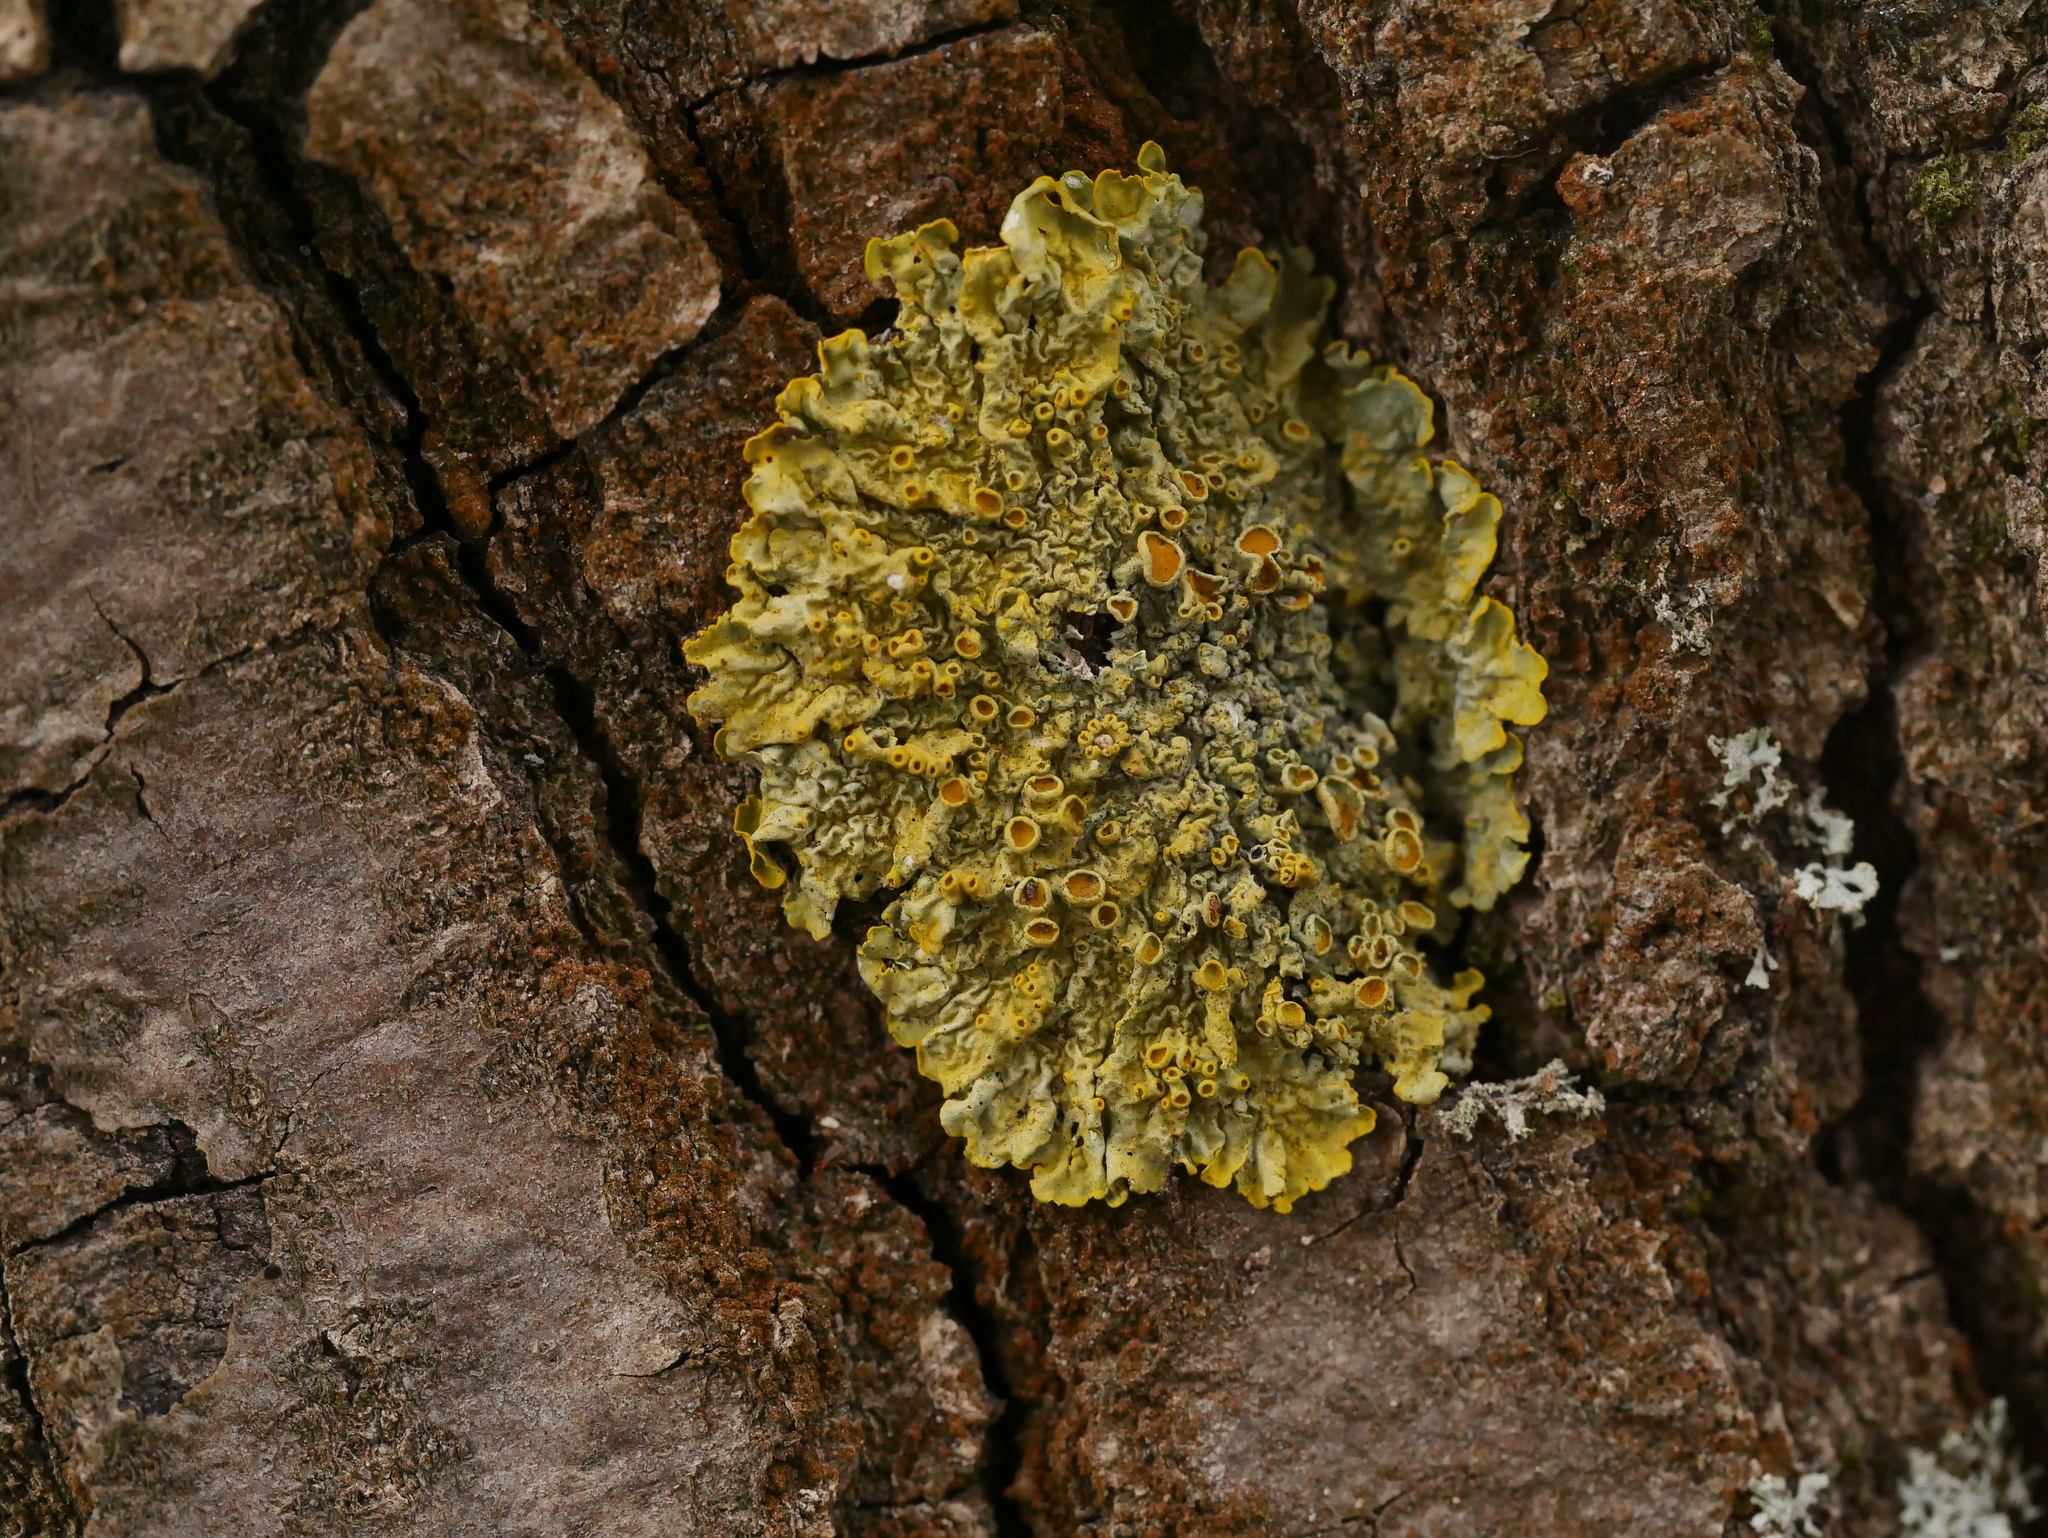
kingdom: Fungi
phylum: Ascomycota
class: Lecanoromycetes
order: Teloschistales
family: Teloschistaceae
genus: Xanthoria
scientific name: Xanthoria parietina
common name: Common orange lichen
